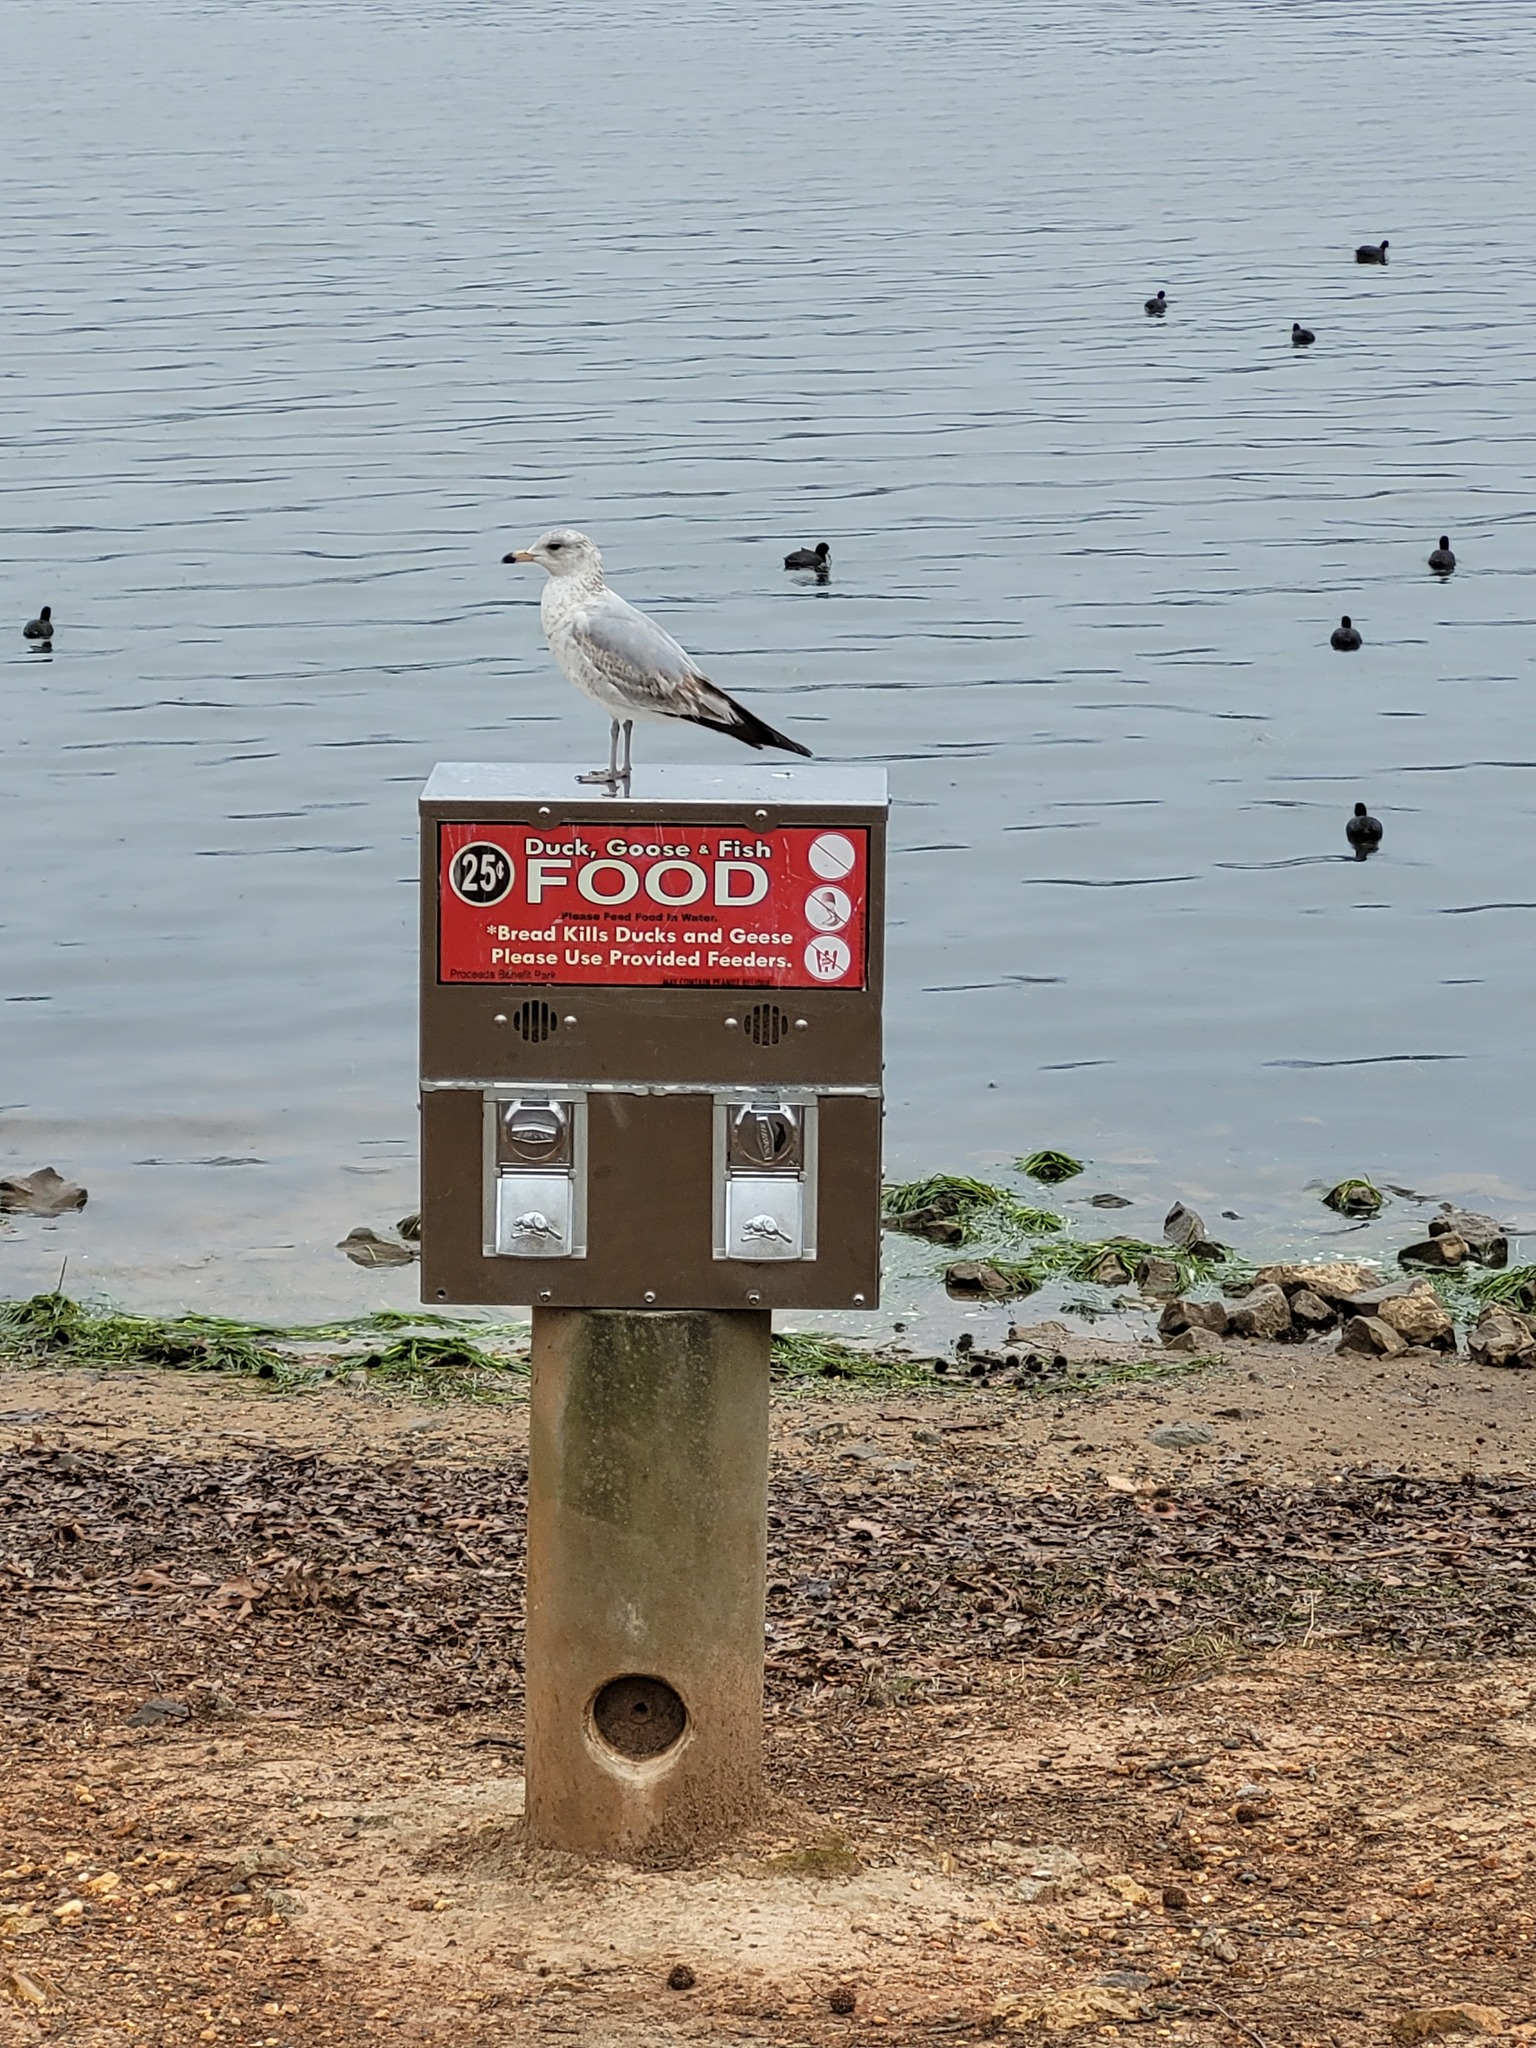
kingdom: Animalia
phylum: Chordata
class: Aves
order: Charadriiformes
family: Laridae
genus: Larus
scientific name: Larus delawarensis
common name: Ring-billed gull
